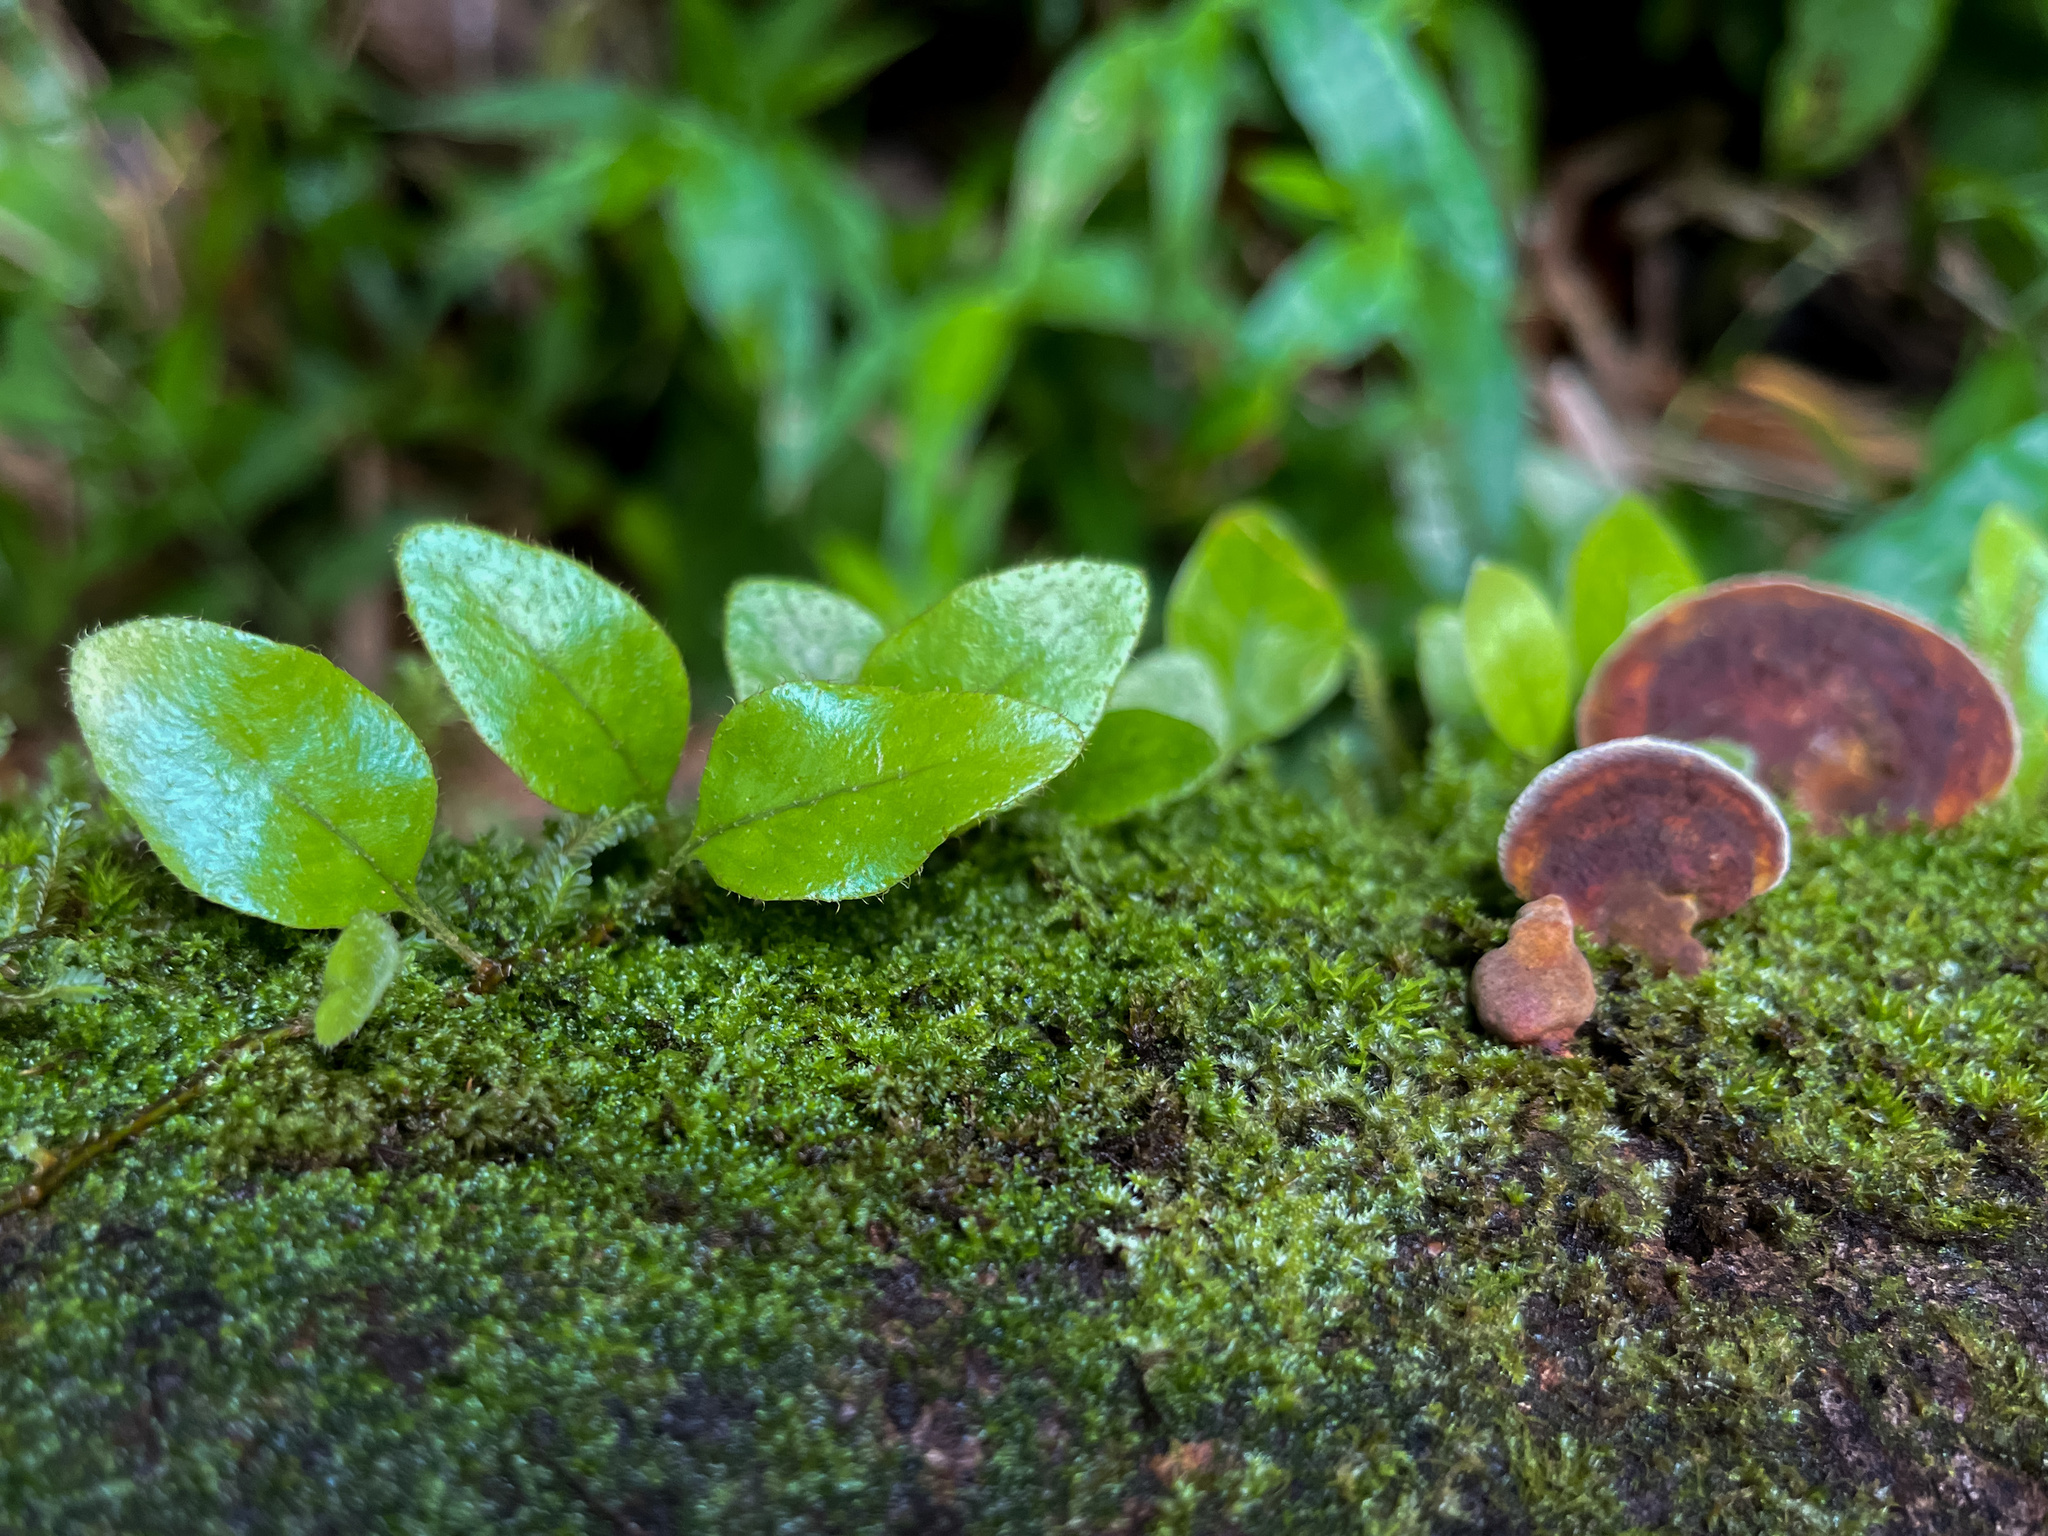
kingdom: Plantae
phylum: Tracheophyta
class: Polypodiopsida
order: Polypodiales
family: Polypodiaceae
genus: Microgramma
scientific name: Microgramma piloselloides
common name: Hairy snakefern
